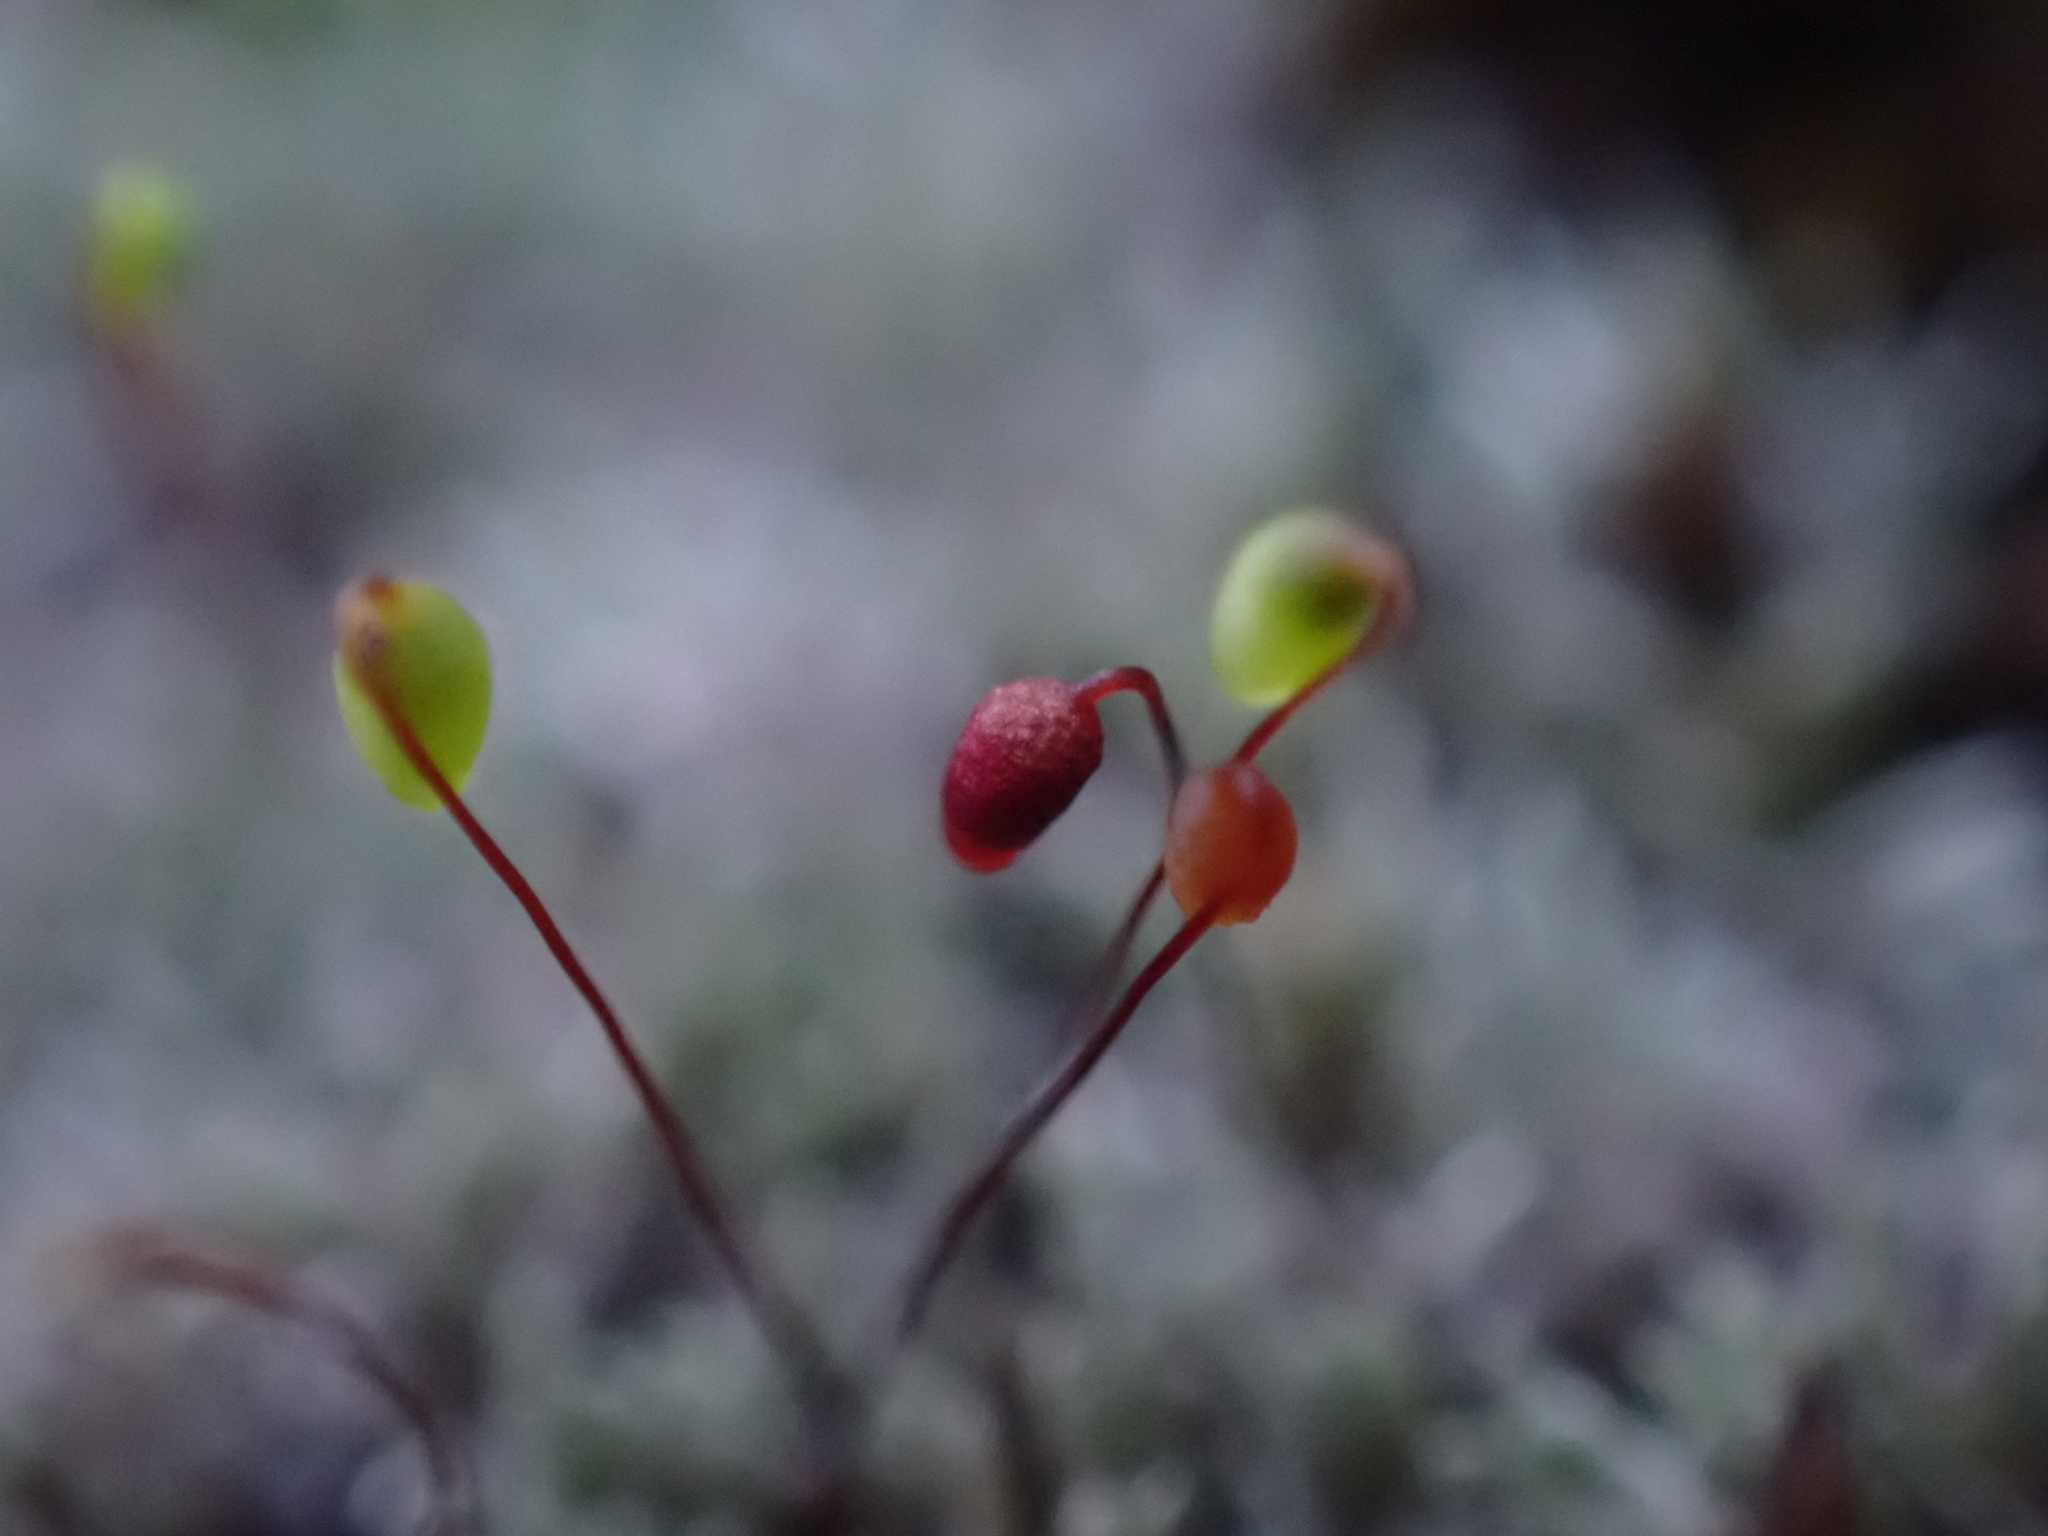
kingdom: Plantae
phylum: Bryophyta
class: Bryopsida
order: Bryales
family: Bryaceae
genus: Bryum
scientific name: Bryum argenteum
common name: Silver-moss
